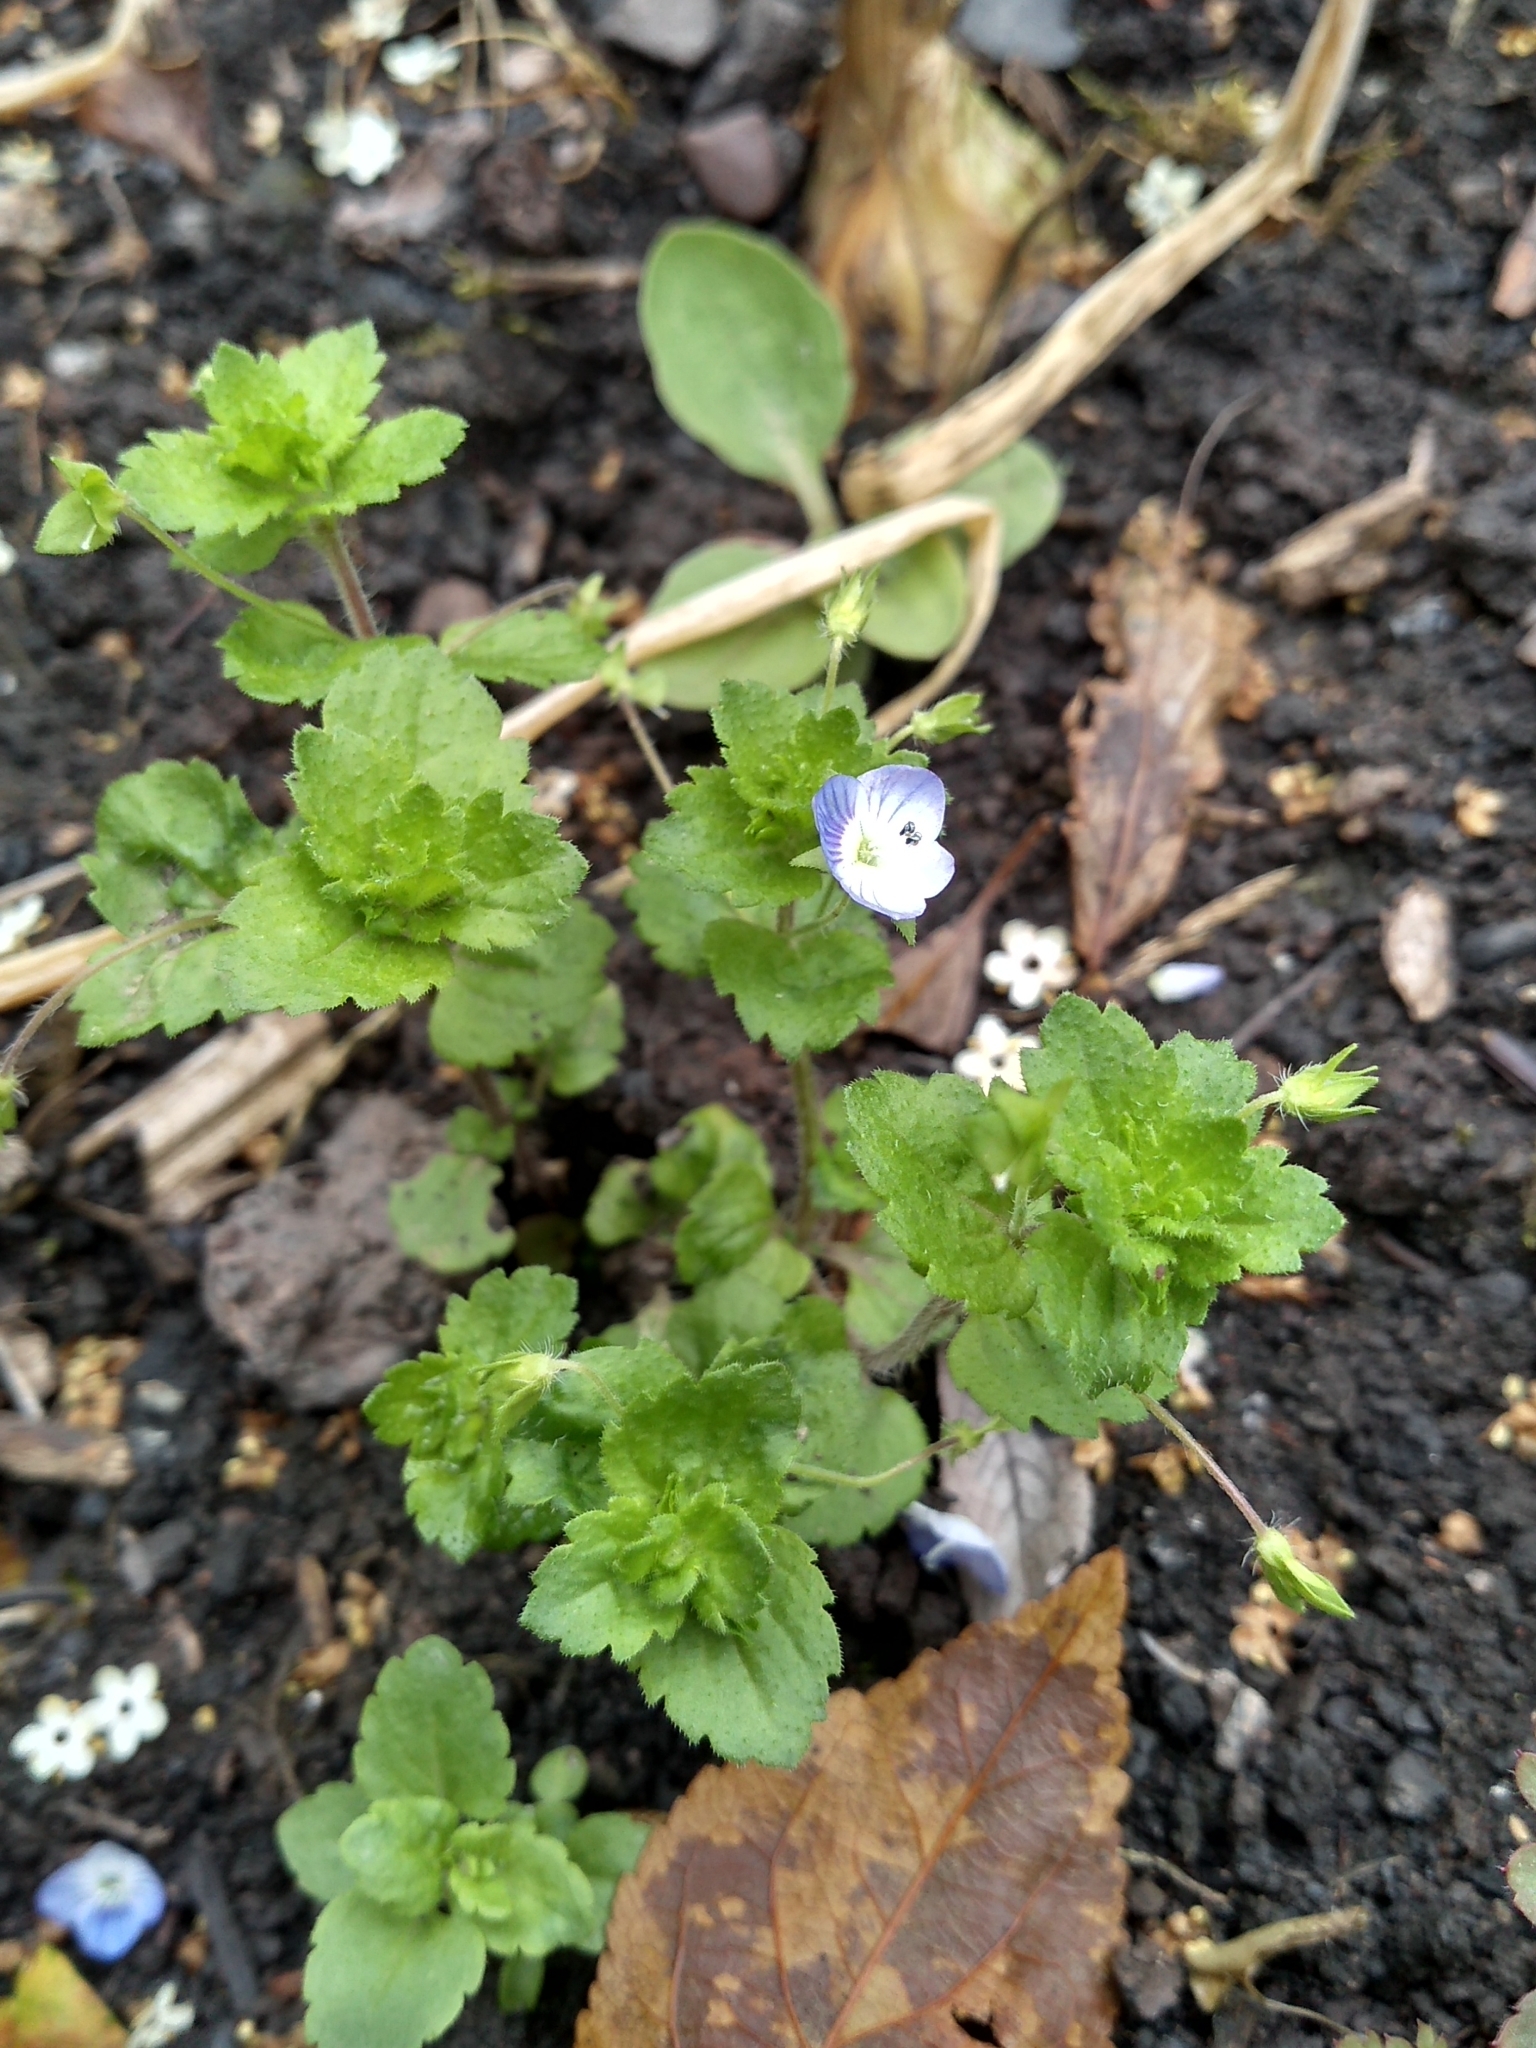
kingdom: Plantae
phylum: Tracheophyta
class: Magnoliopsida
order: Lamiales
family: Plantaginaceae
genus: Veronica
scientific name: Veronica persica
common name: Common field-speedwell
